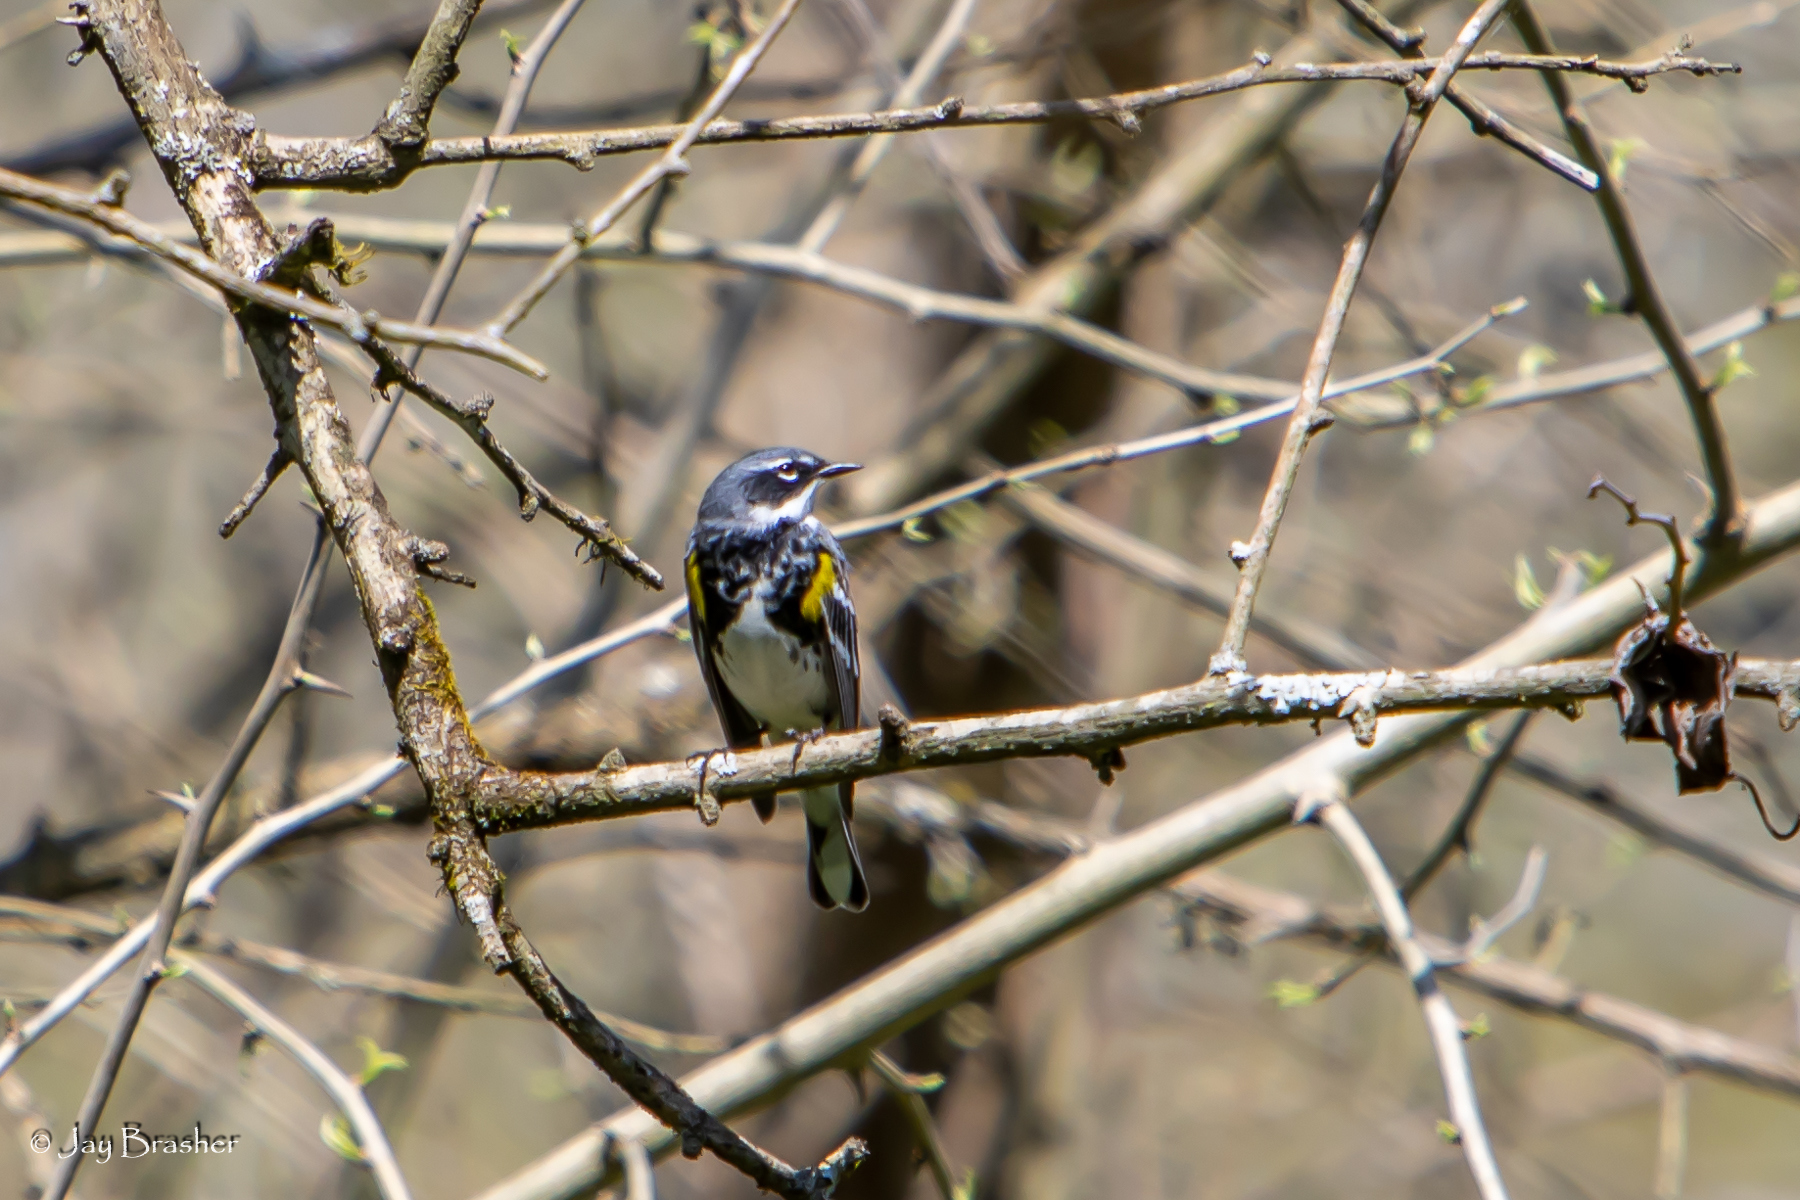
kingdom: Animalia
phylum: Chordata
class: Aves
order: Passeriformes
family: Parulidae
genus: Setophaga
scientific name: Setophaga coronata
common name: Myrtle warbler
